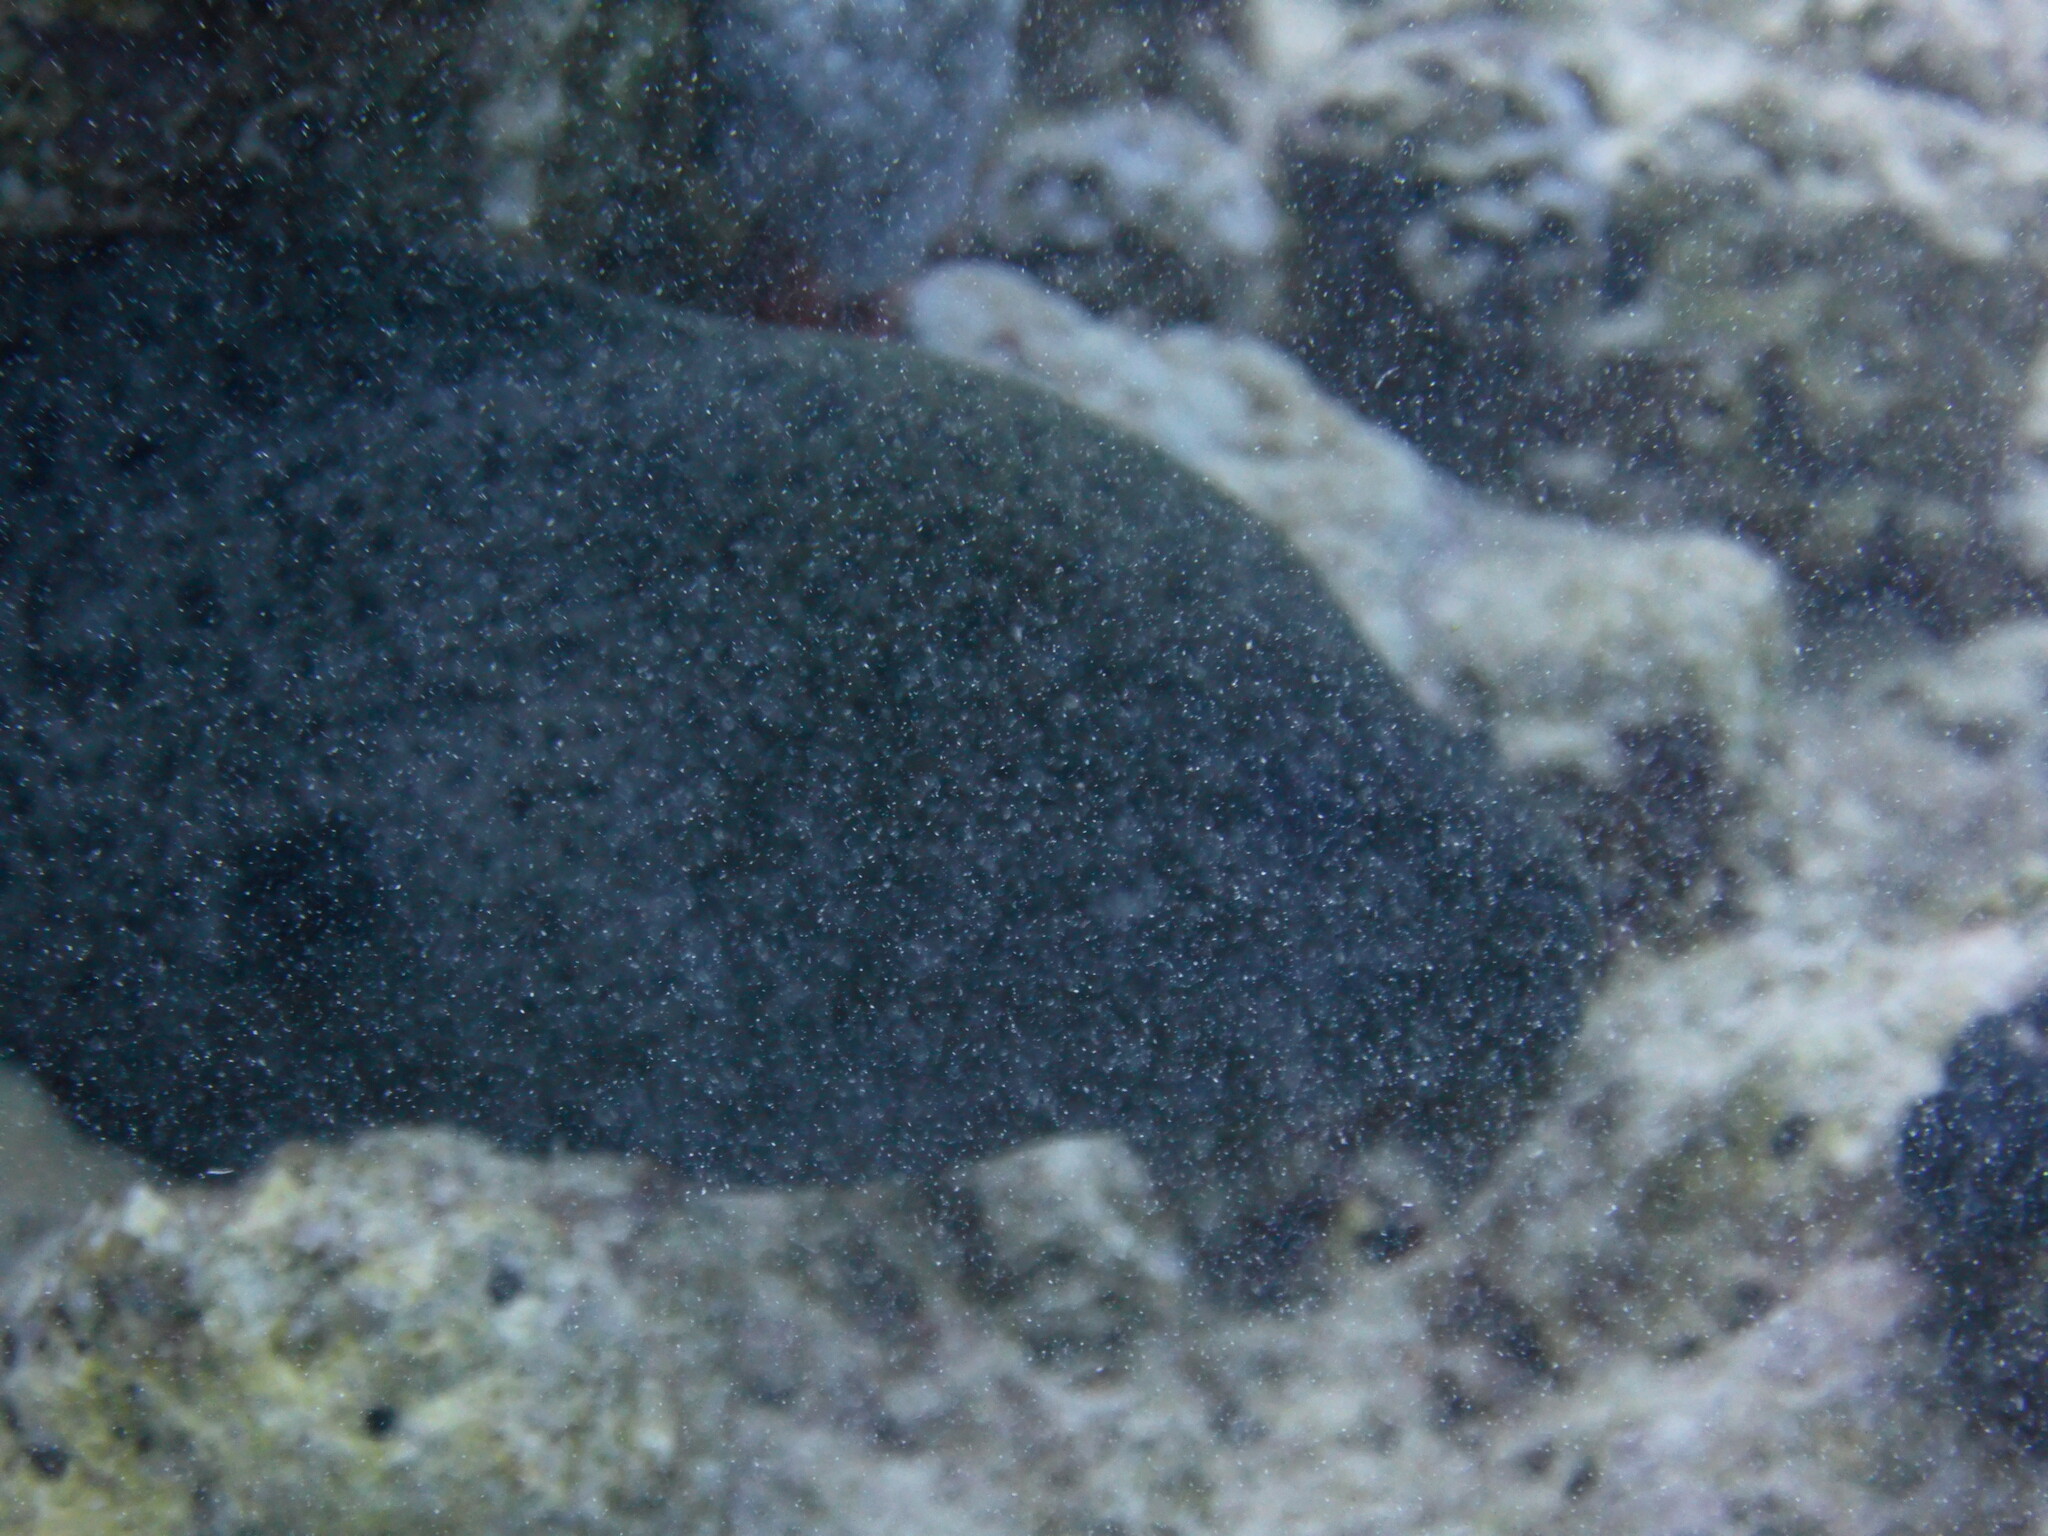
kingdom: Animalia
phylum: Chordata
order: Anguilliformes
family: Muraenidae
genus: Gymnothorax
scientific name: Gymnothorax javanicus
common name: Giant moray
